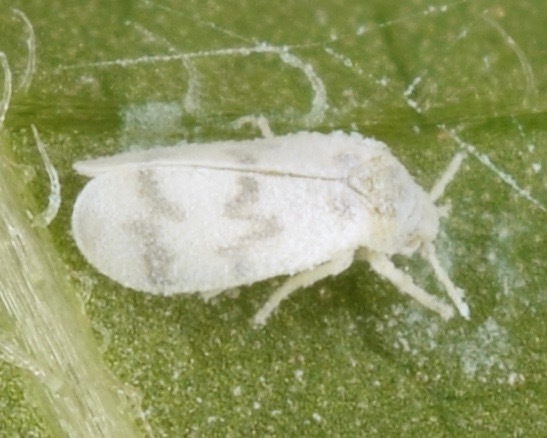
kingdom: Animalia
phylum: Arthropoda
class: Insecta
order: Hemiptera
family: Aleyrodidae
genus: Trialeurodes
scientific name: Trialeurodes abutiloneus
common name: Whitefly
